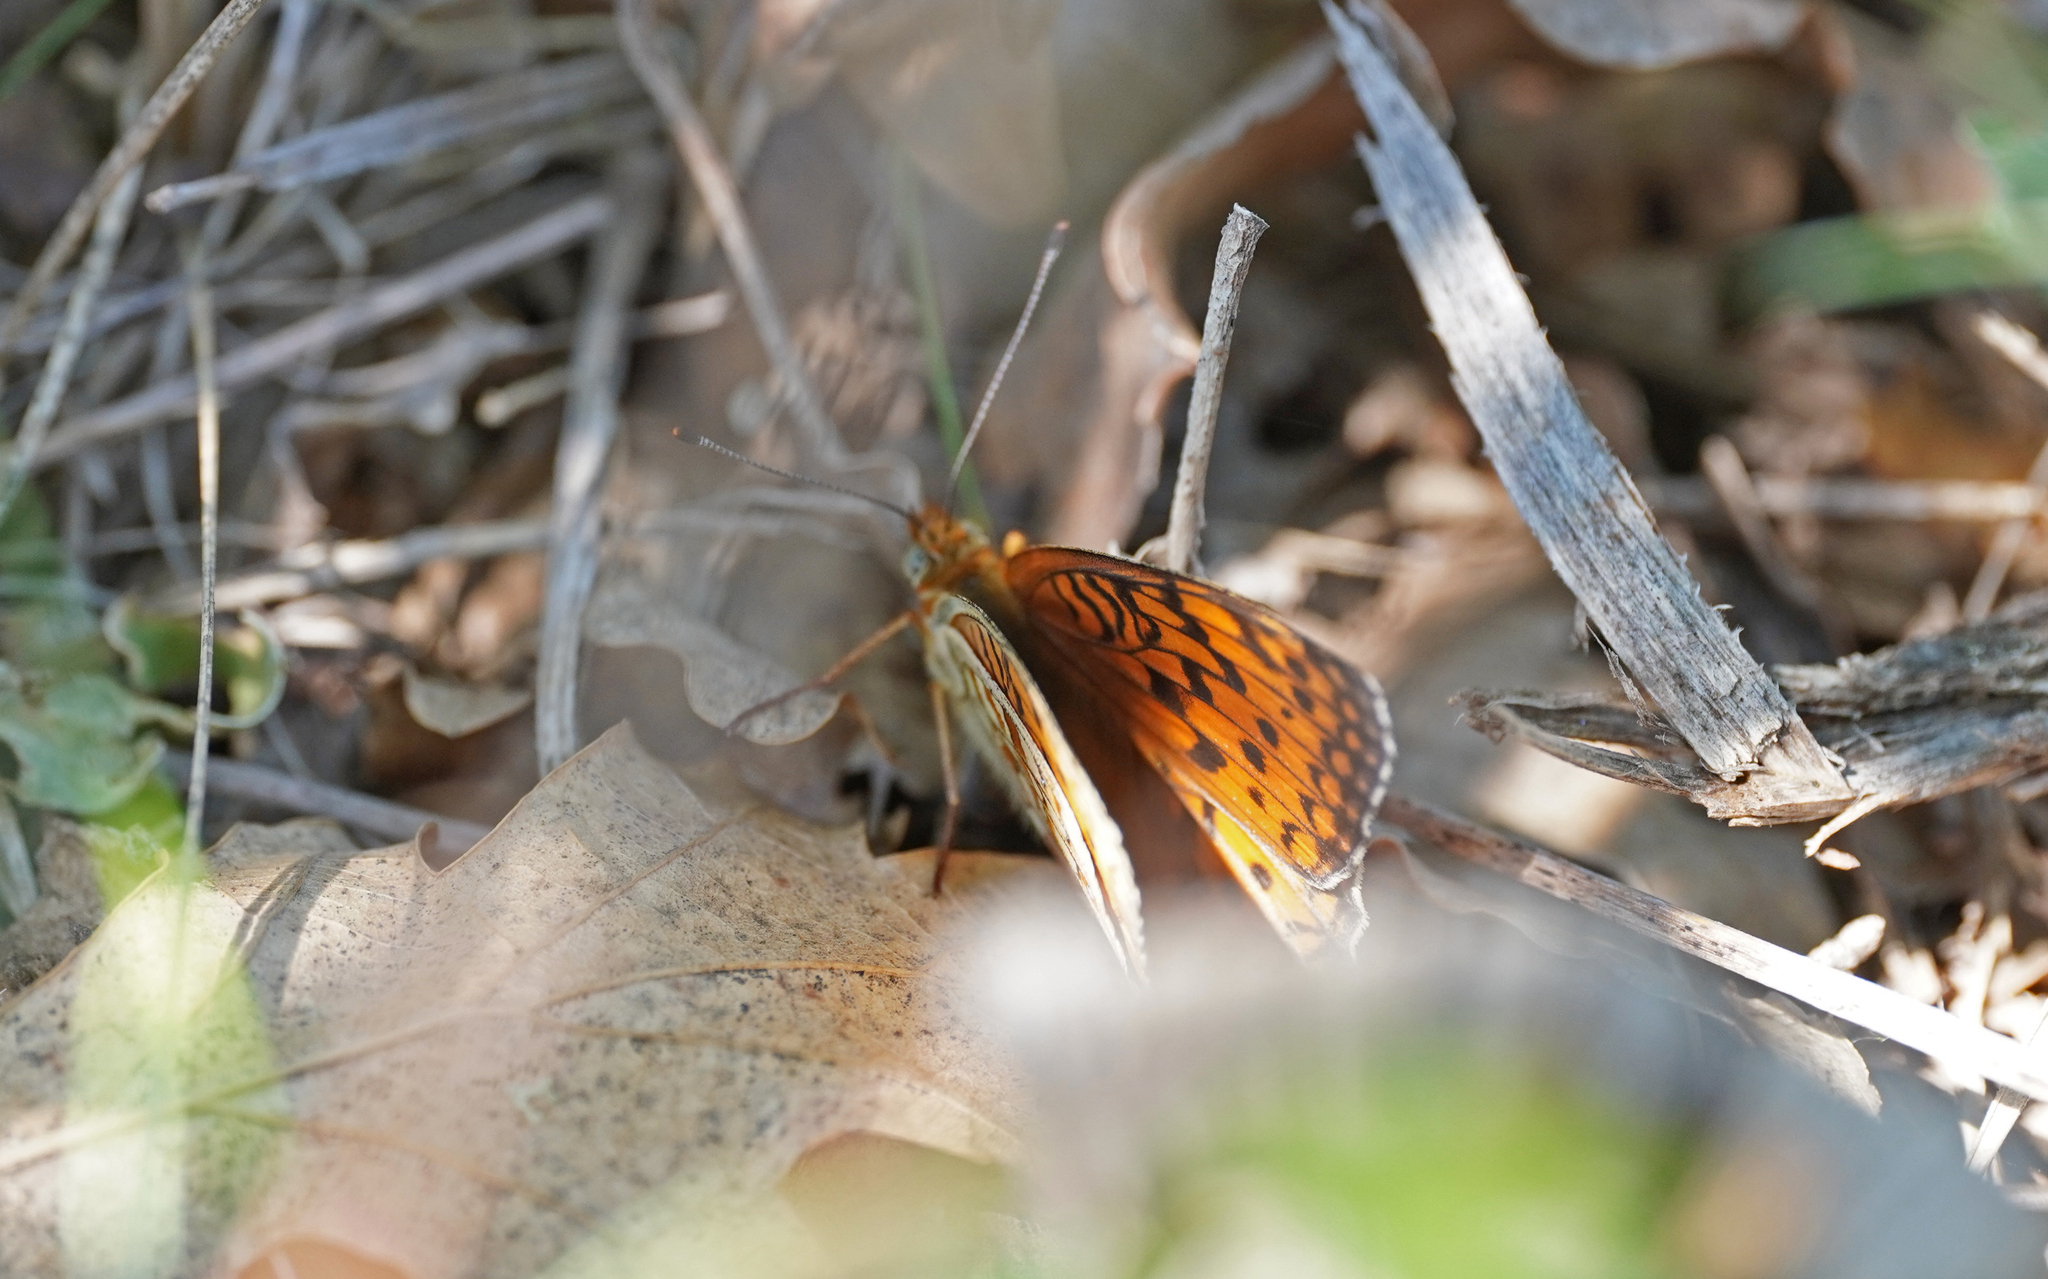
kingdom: Animalia
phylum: Arthropoda
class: Insecta
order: Lepidoptera
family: Nymphalidae
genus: Fabriciana
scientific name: Fabriciana niobe
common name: Niobe fritillary
